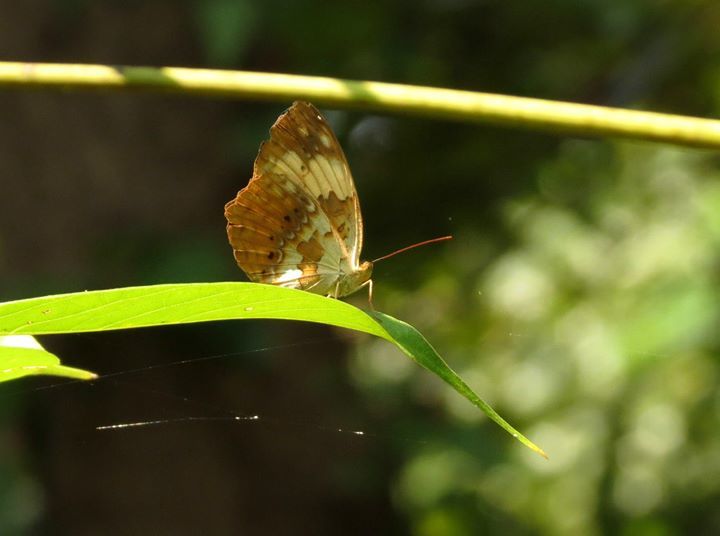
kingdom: Animalia
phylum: Arthropoda
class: Insecta
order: Lepidoptera
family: Nymphalidae
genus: Cupha
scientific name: Cupha erymanthis
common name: Rustic
